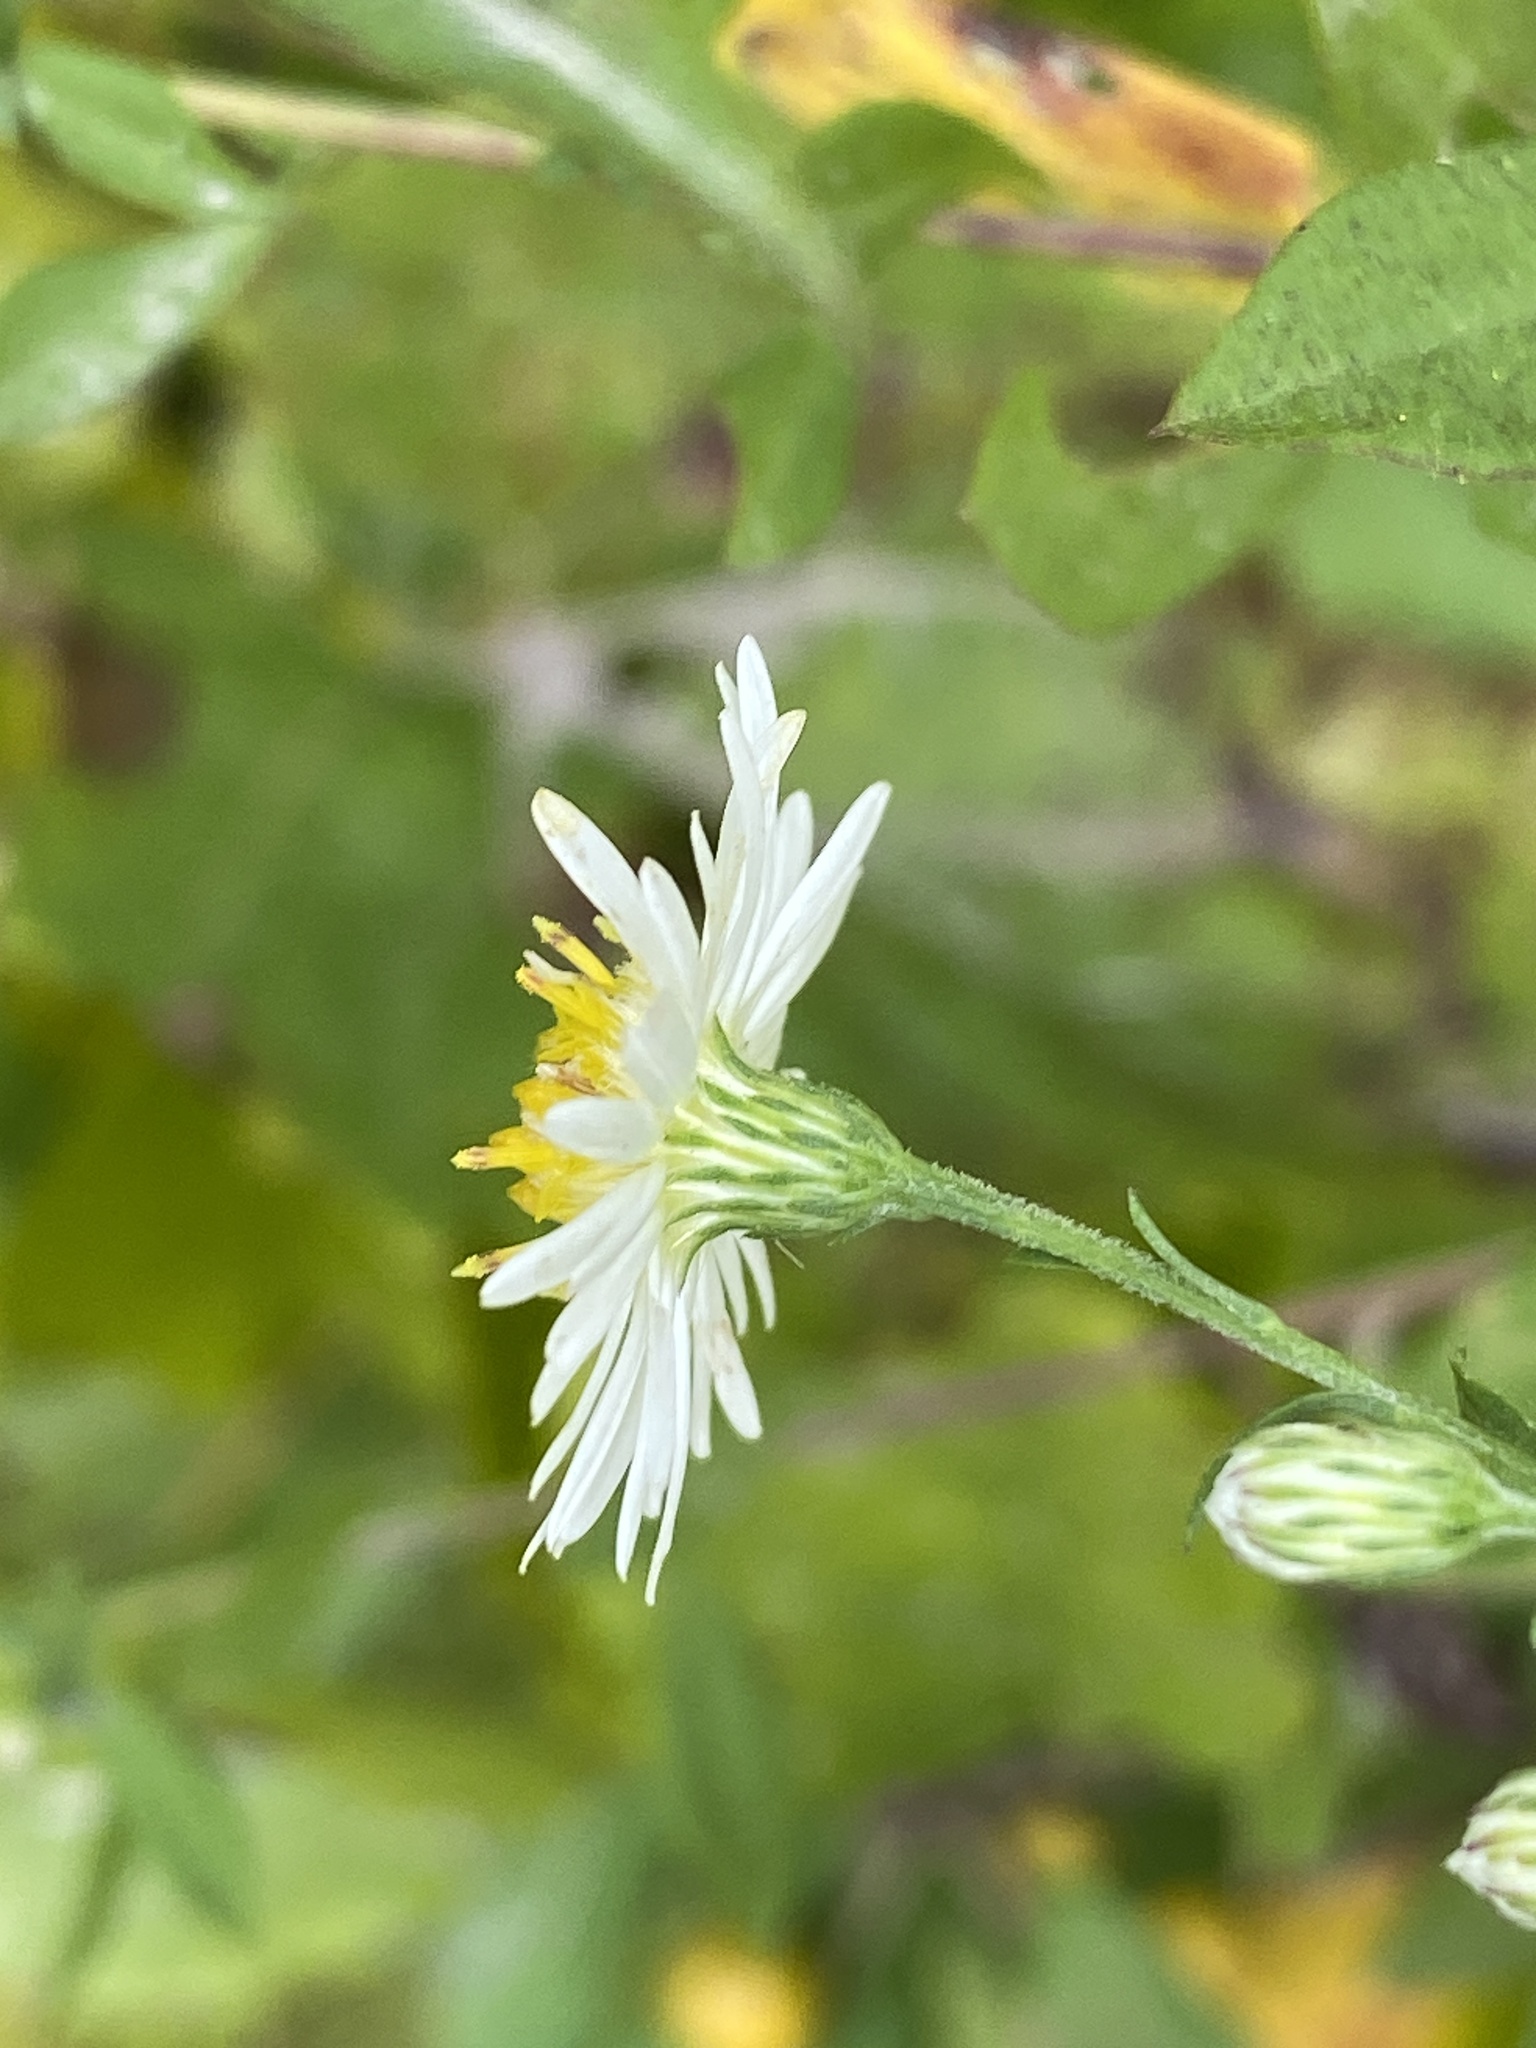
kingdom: Plantae
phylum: Tracheophyta
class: Magnoliopsida
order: Asterales
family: Asteraceae
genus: Symphyotrichum
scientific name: Symphyotrichum lanceolatum
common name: Panicled aster
